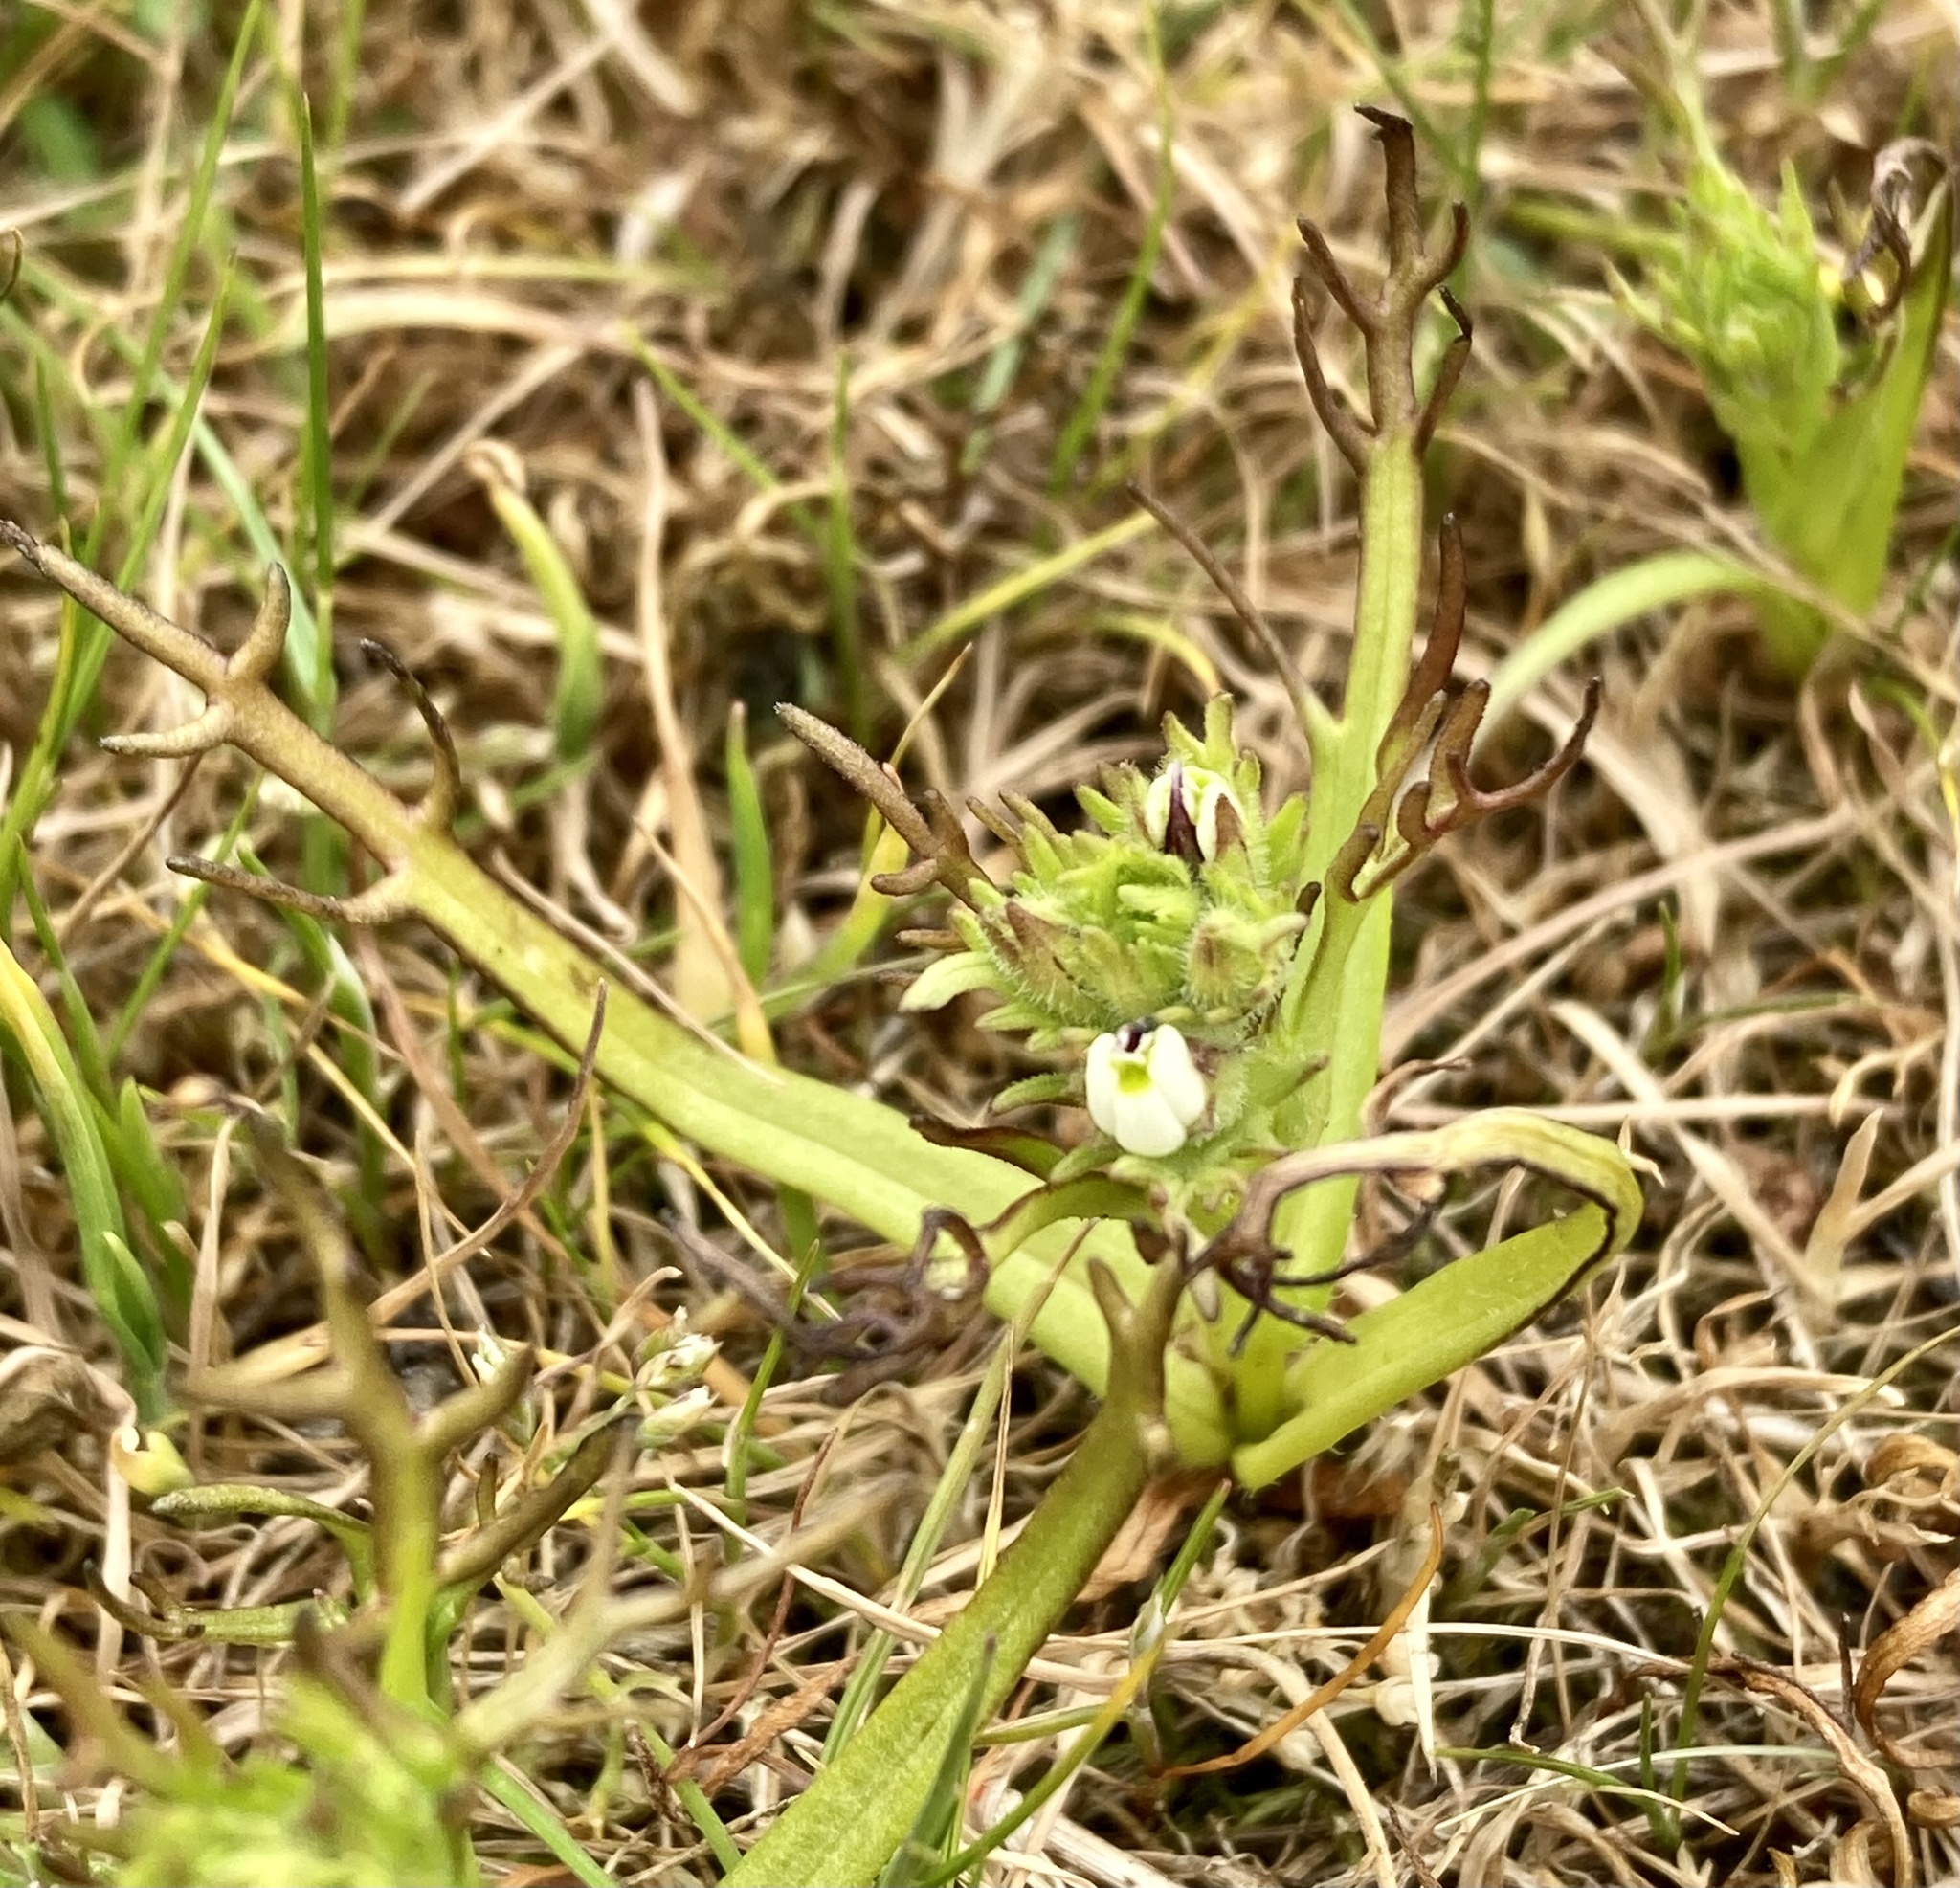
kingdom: Plantae
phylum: Tracheophyta
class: Magnoliopsida
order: Lamiales
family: Orobanchaceae
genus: Triphysaria
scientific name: Triphysaria versicolor
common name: Bearded false owl-clover
